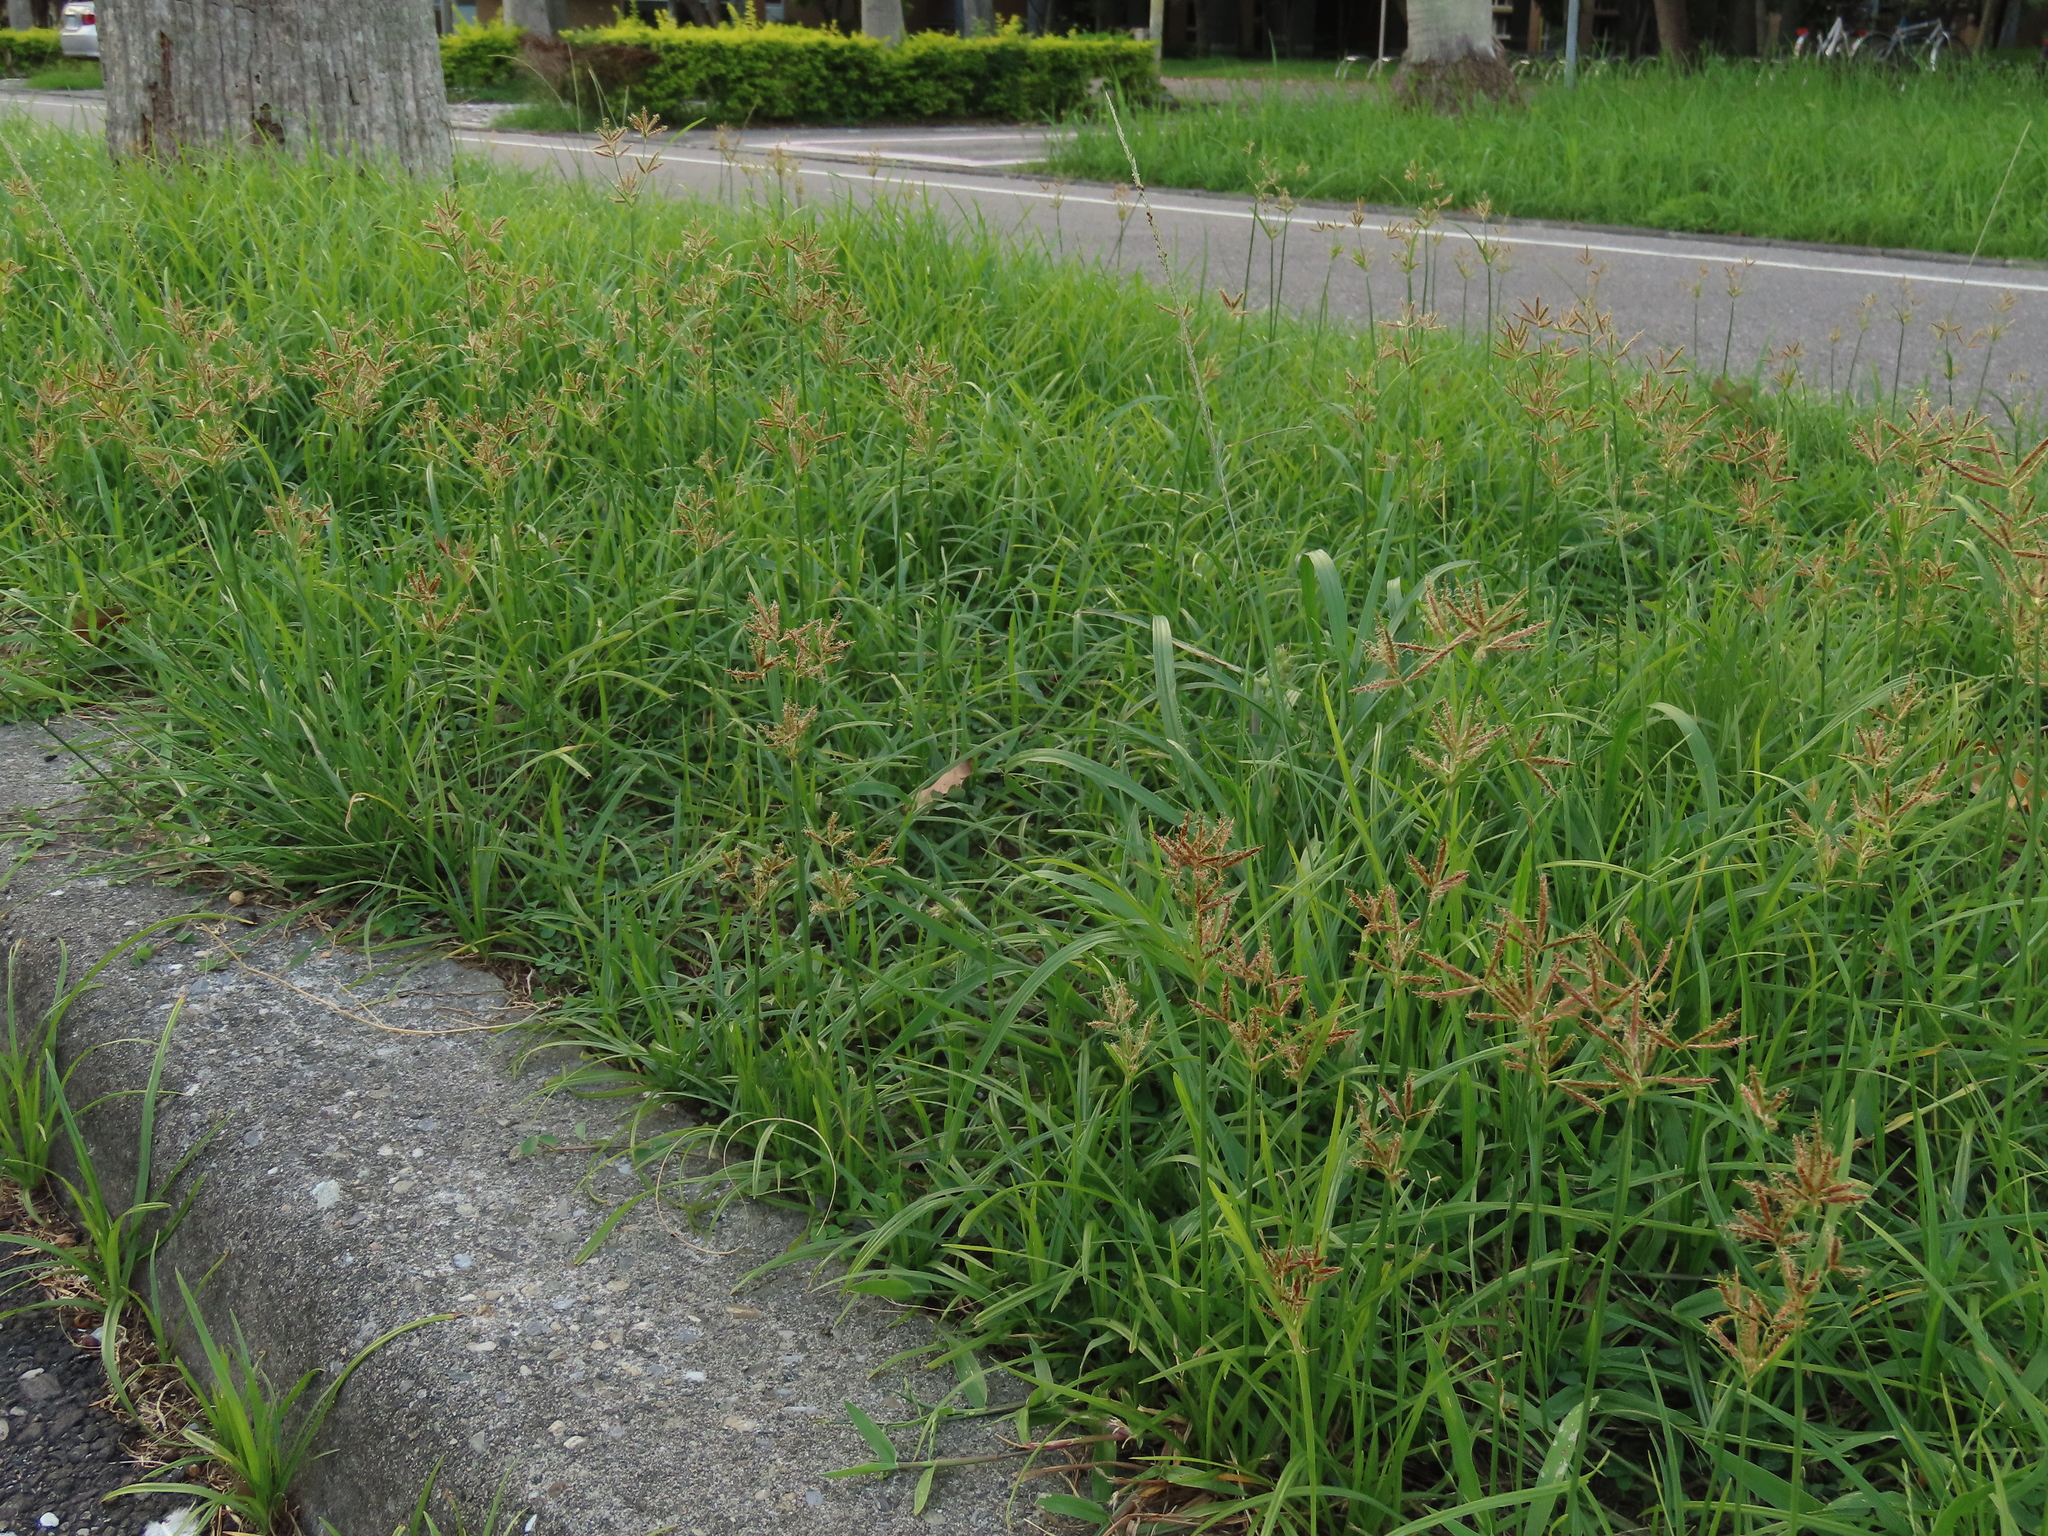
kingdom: Plantae
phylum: Tracheophyta
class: Liliopsida
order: Poales
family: Cyperaceae
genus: Cyperus
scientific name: Cyperus rotundus
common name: Nutgrass
